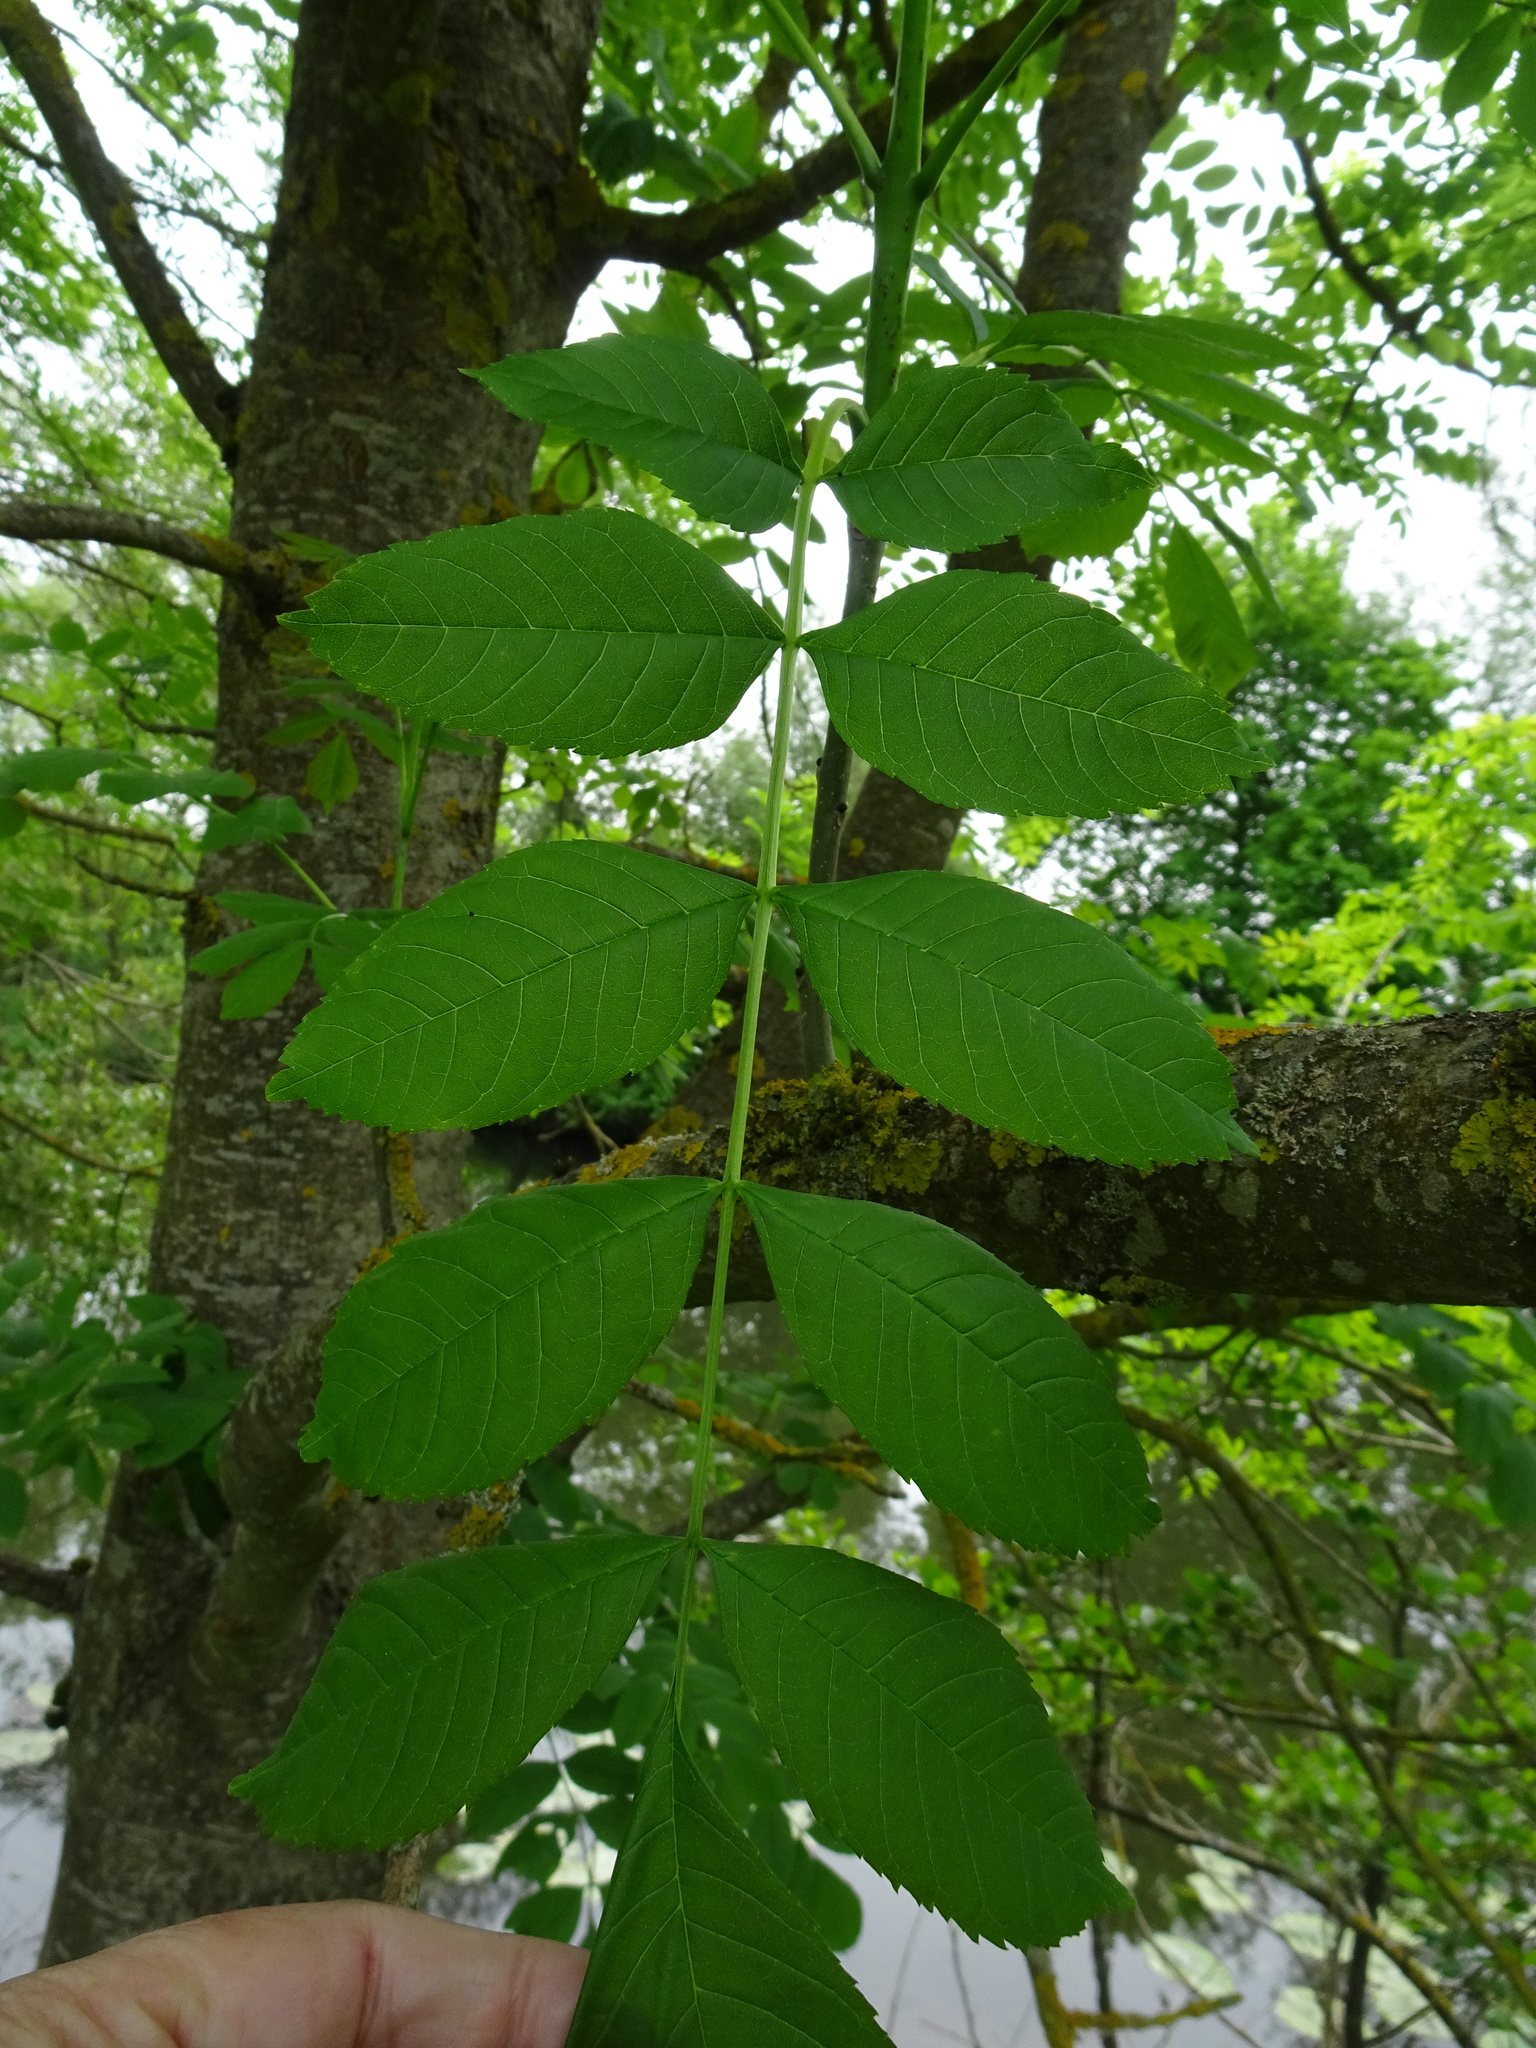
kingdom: Plantae
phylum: Tracheophyta
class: Magnoliopsida
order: Lamiales
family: Oleaceae
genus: Fraxinus
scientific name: Fraxinus excelsior
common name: European ash
